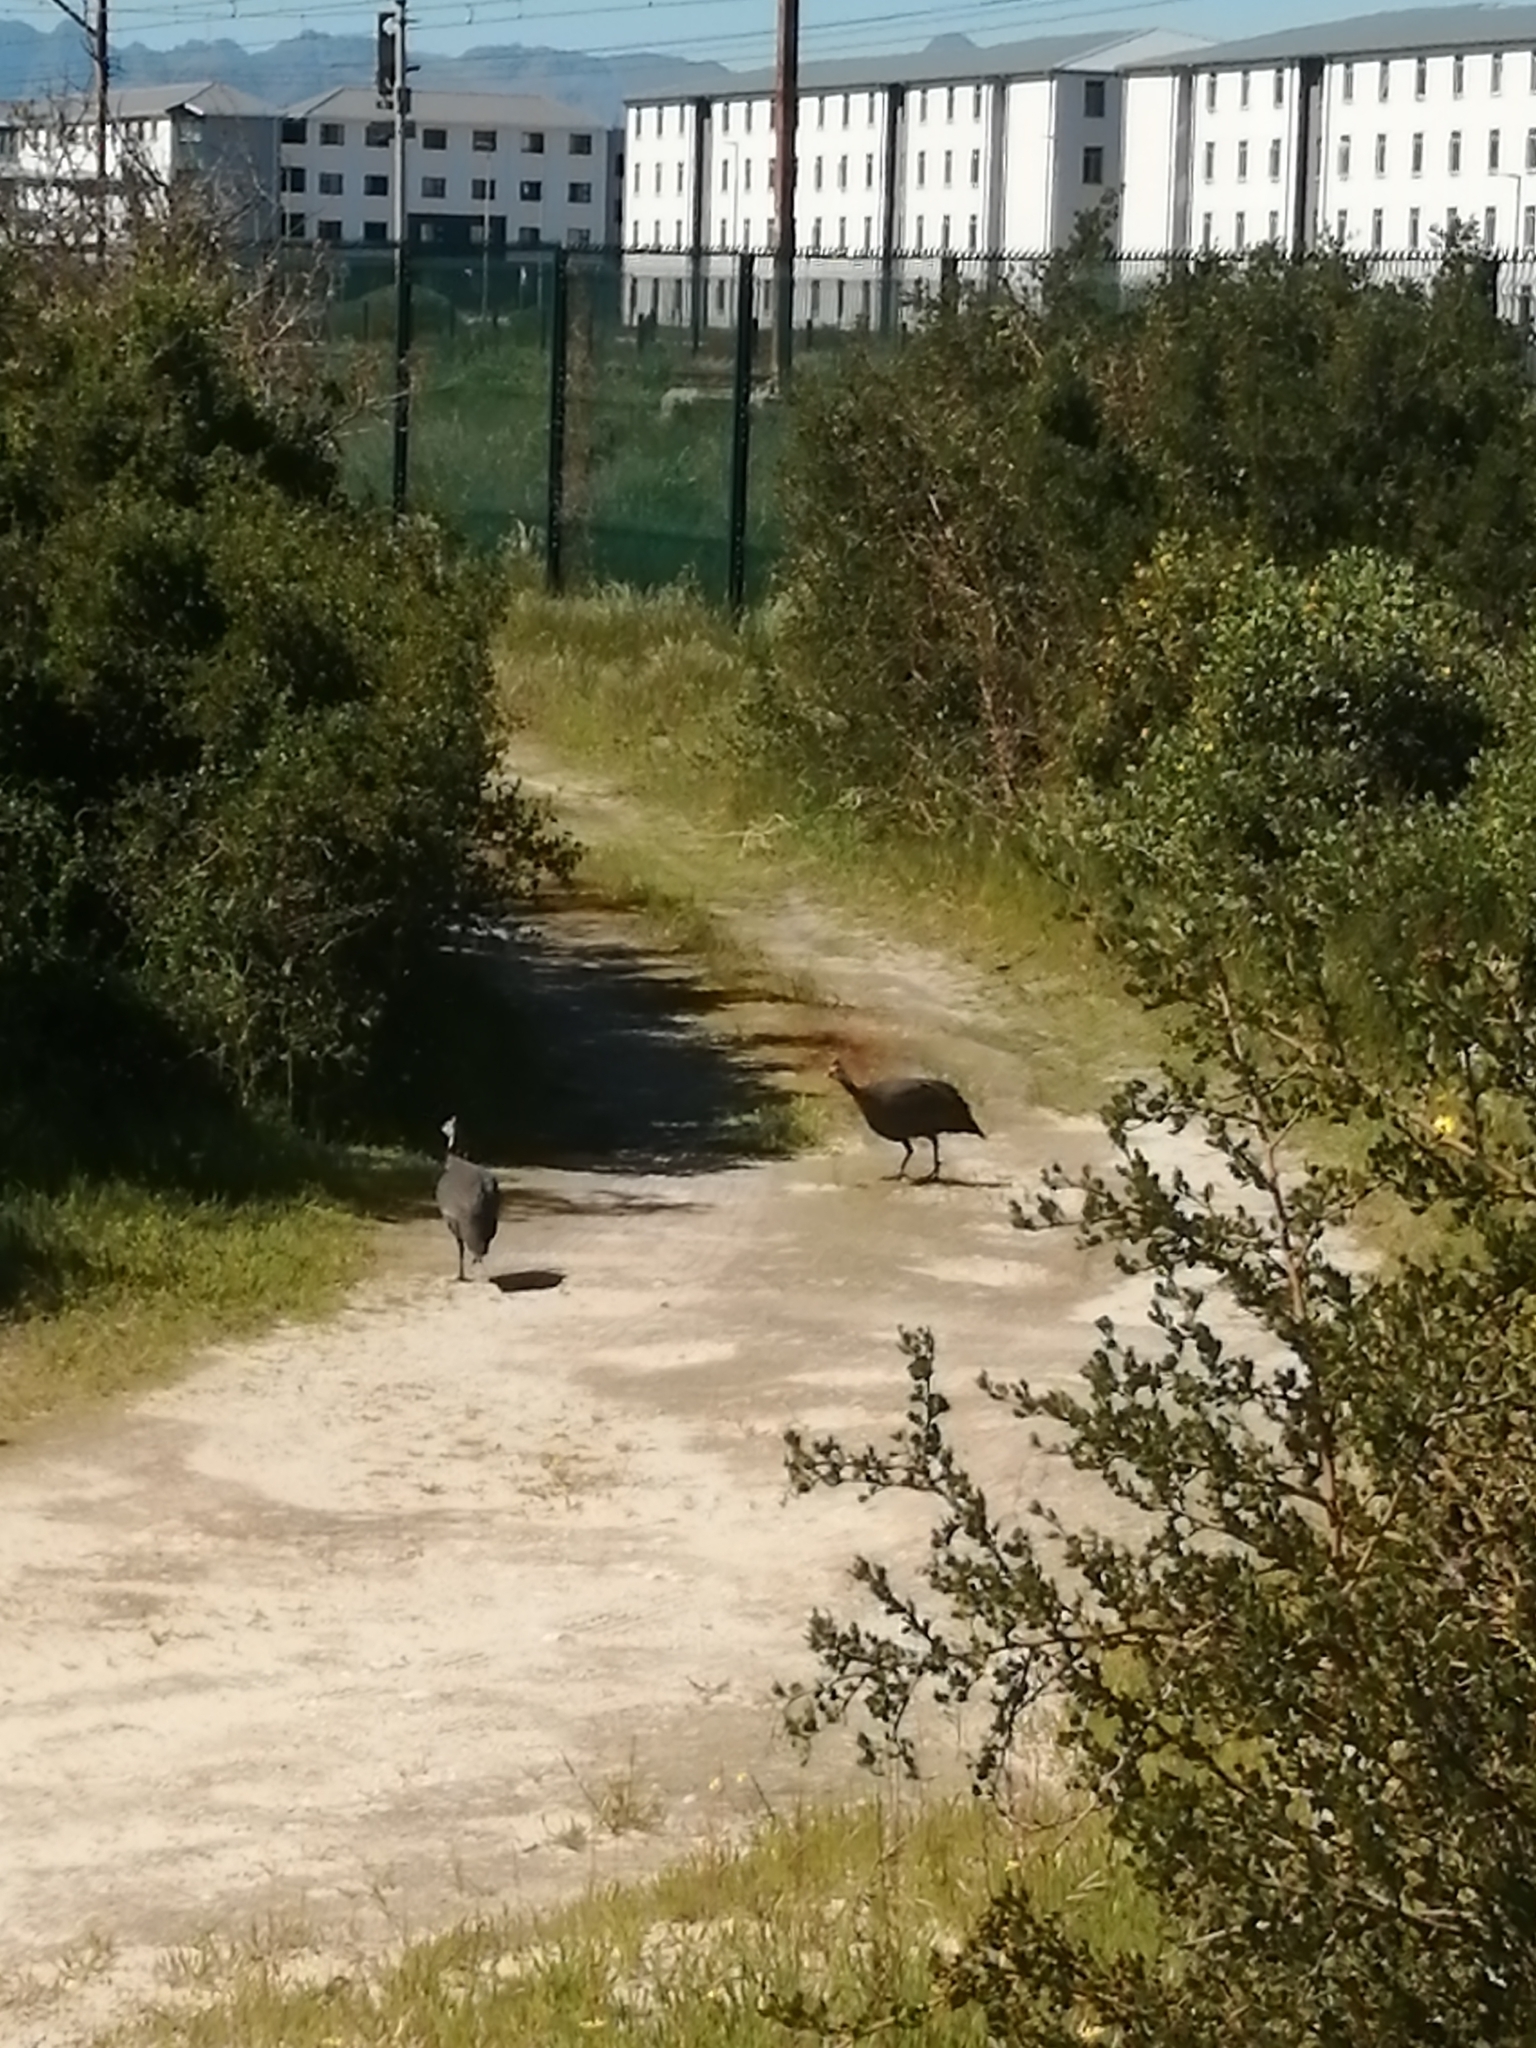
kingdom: Animalia
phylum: Chordata
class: Aves
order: Galliformes
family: Numididae
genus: Numida
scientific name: Numida meleagris
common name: Helmeted guineafowl
